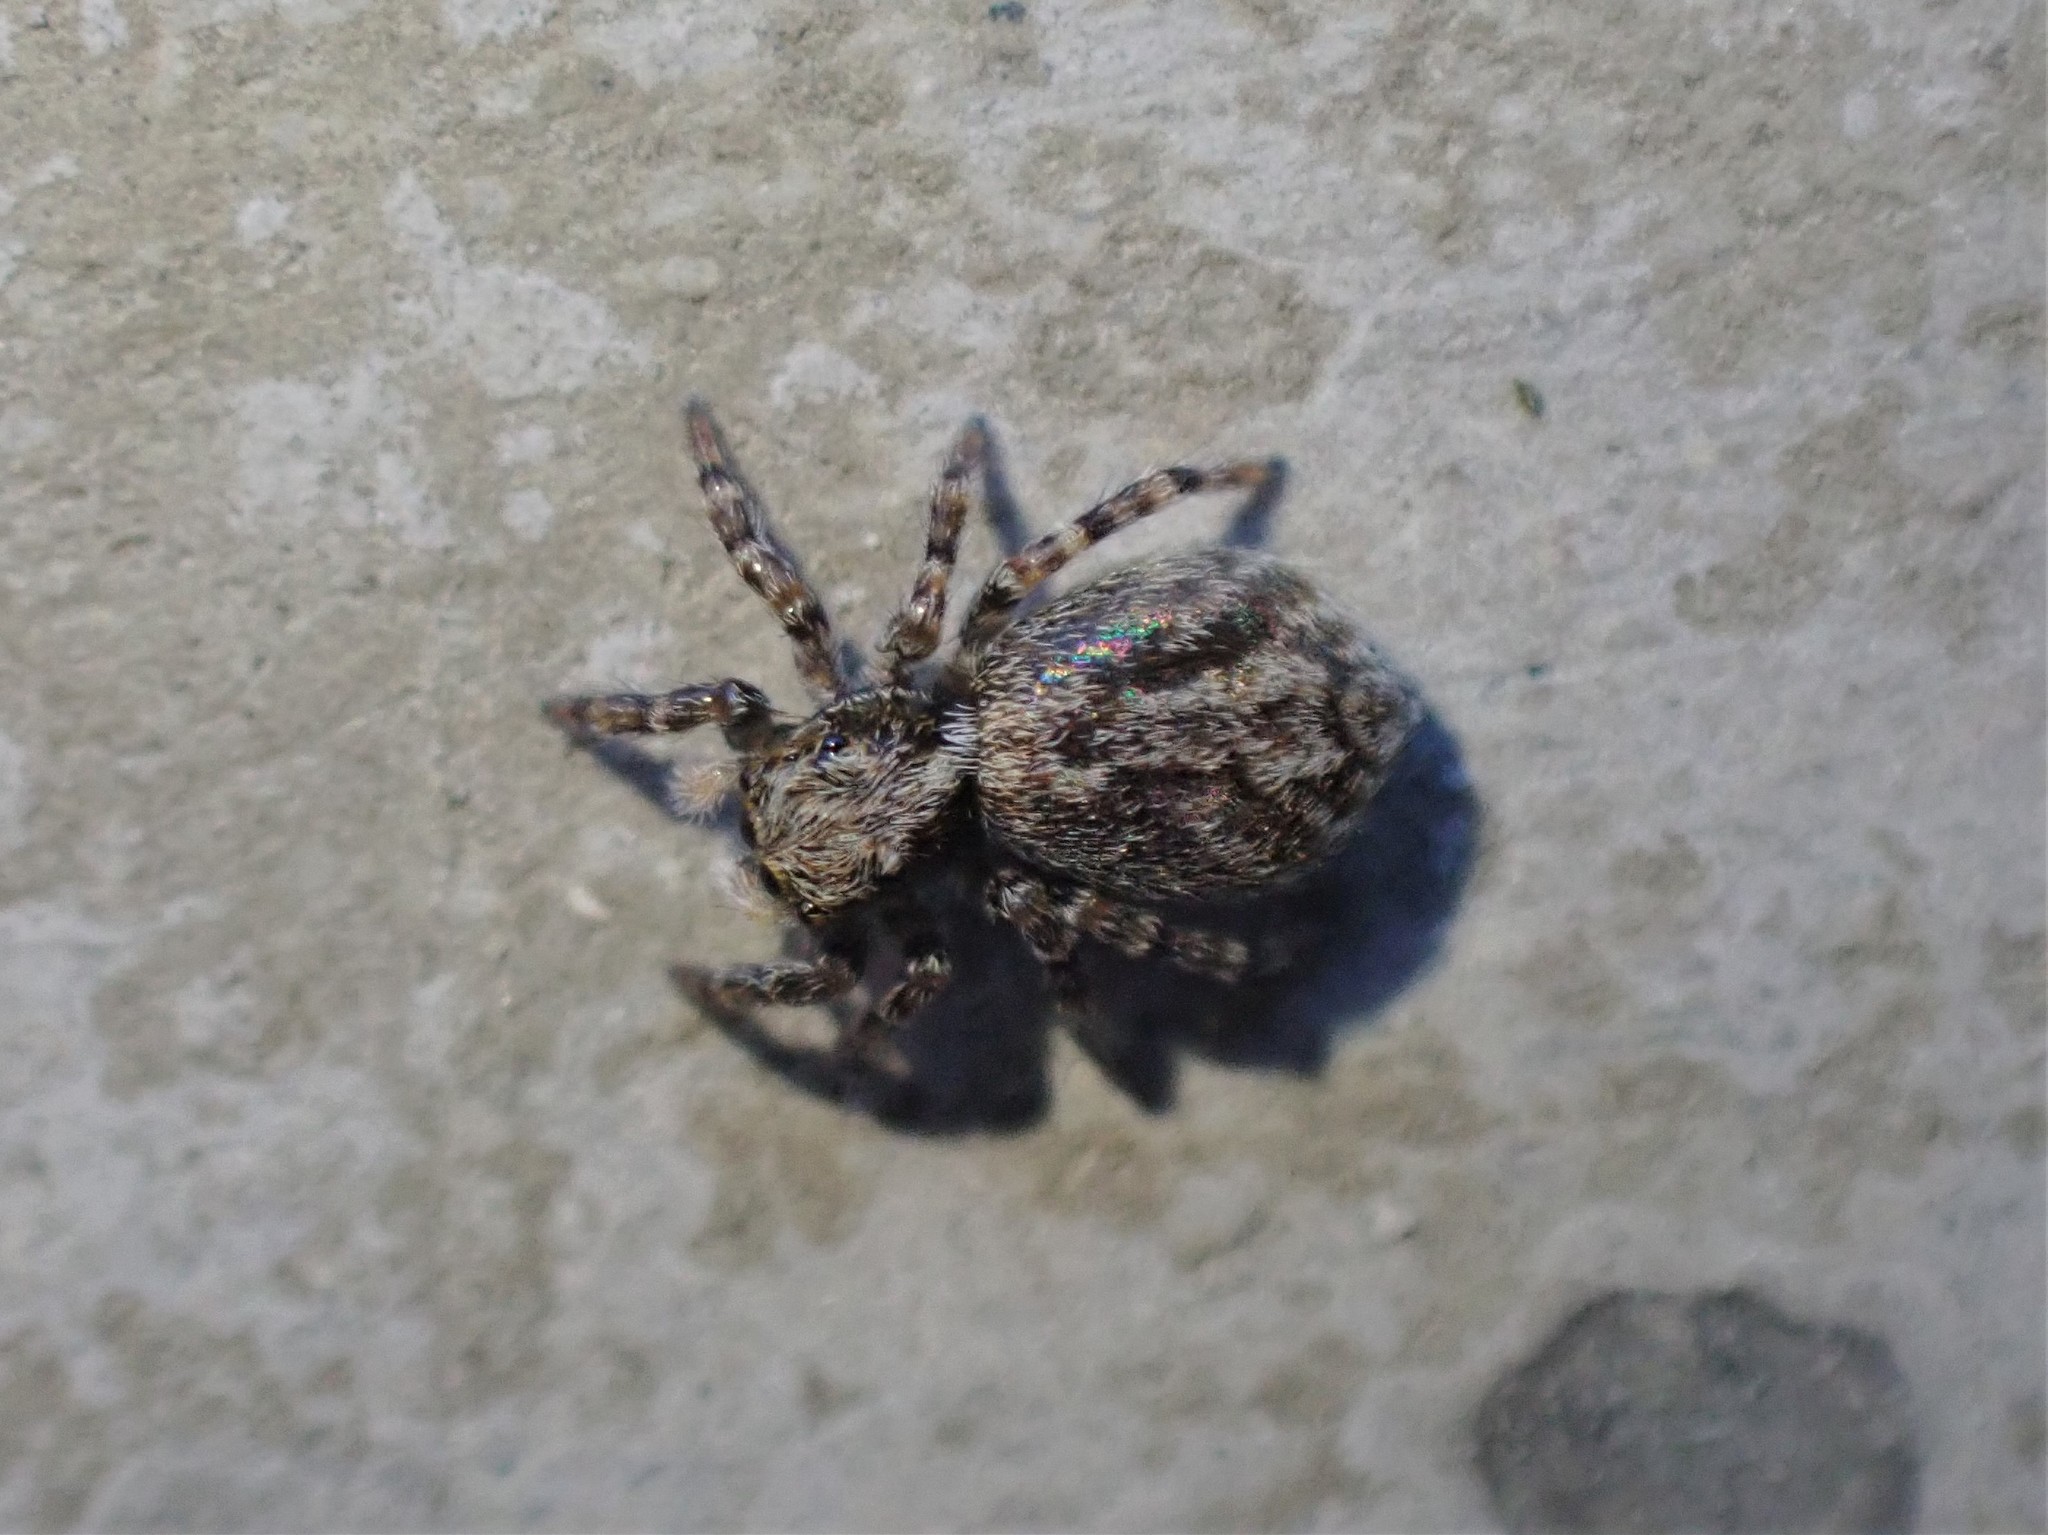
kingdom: Animalia
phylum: Arthropoda
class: Arachnida
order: Araneae
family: Salticidae
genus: Pseudeuophrys
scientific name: Pseudeuophrys lanigera
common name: Jumping spider
